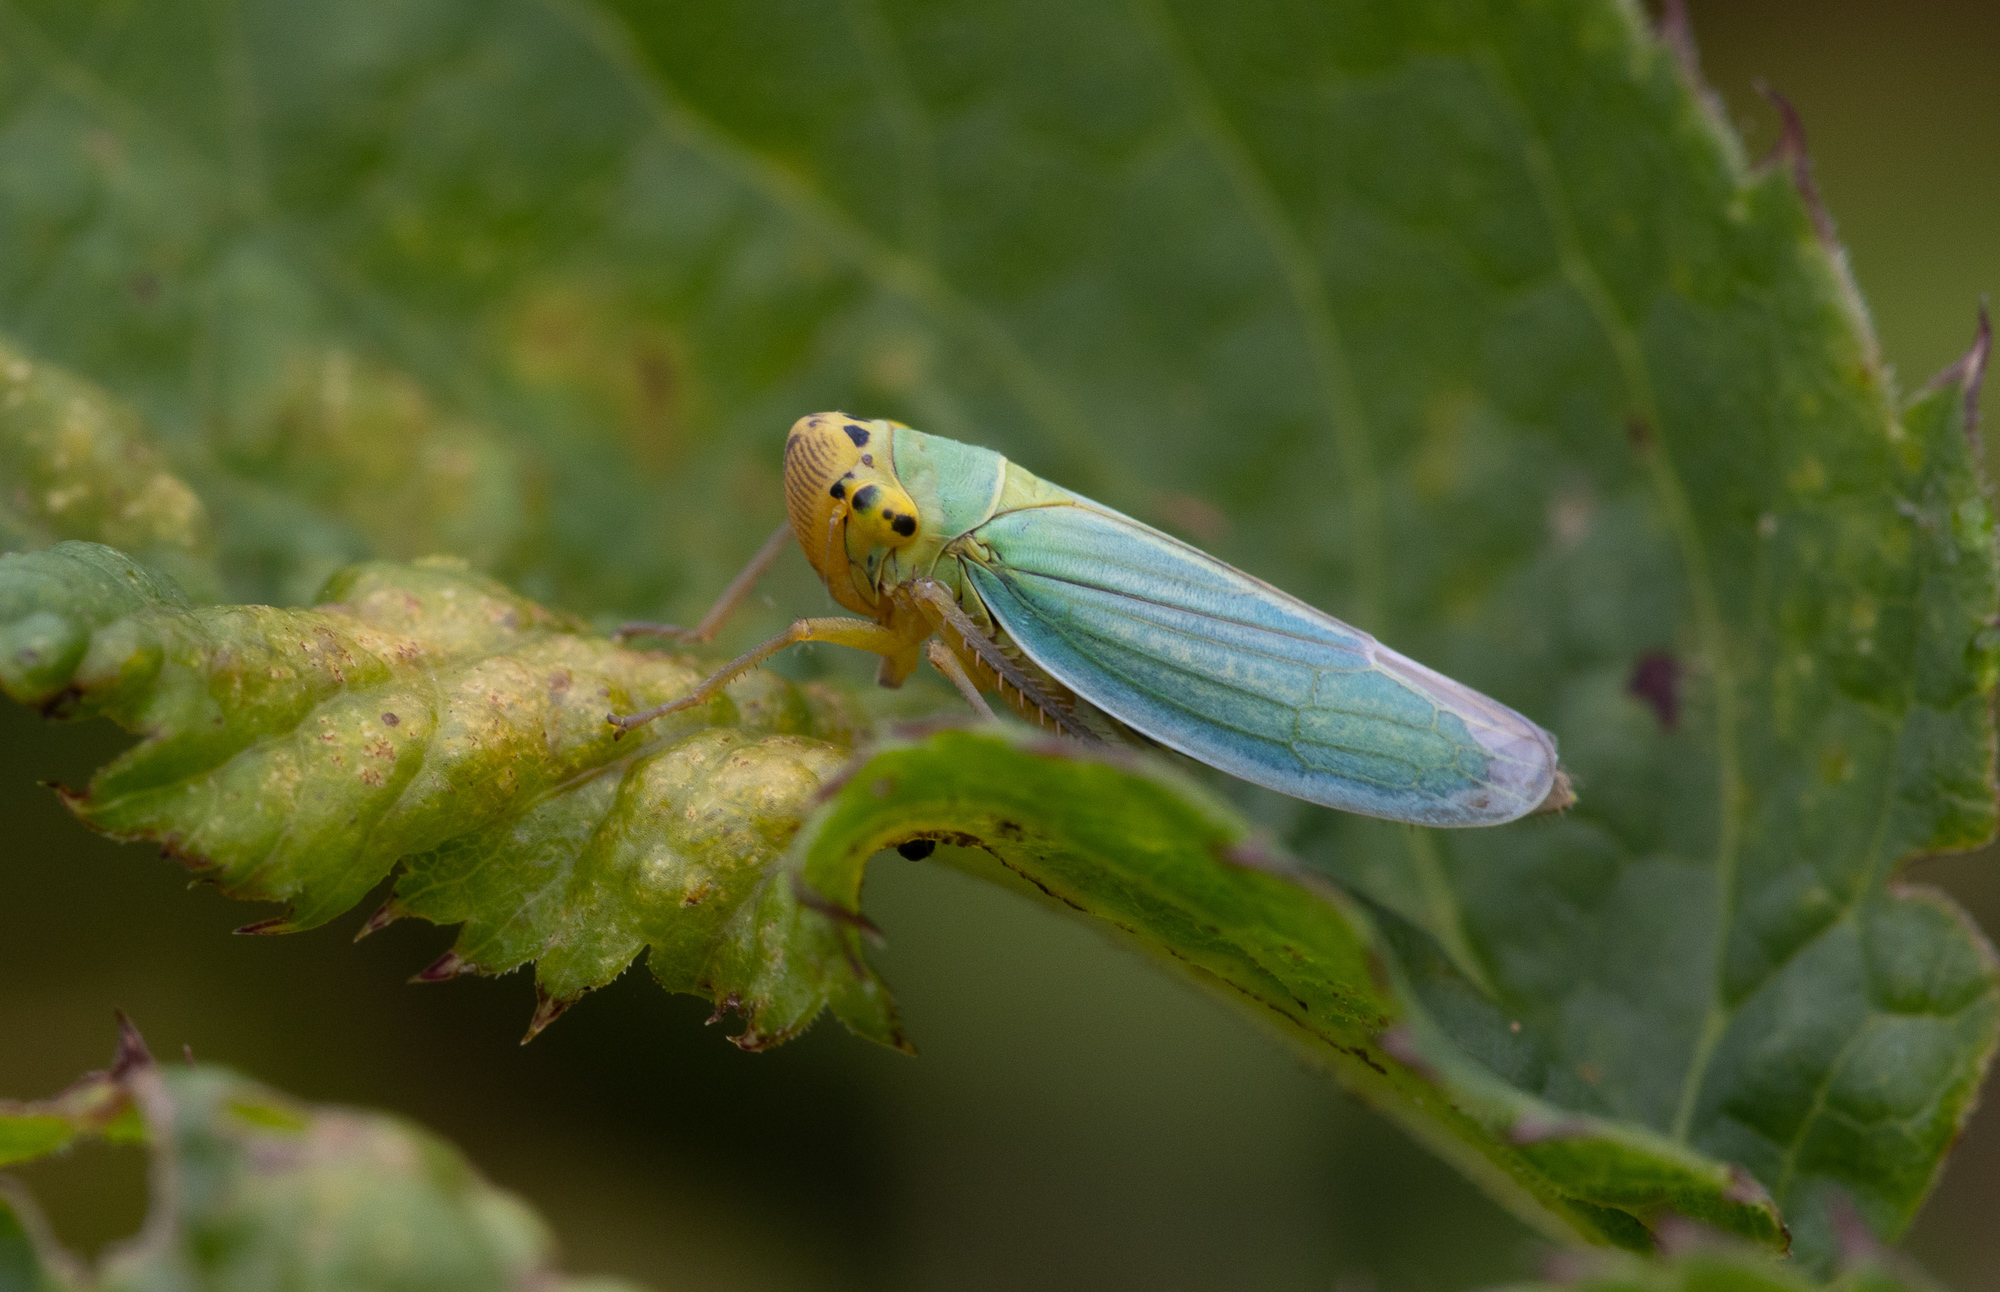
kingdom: Animalia
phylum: Arthropoda
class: Insecta
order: Hemiptera
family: Cicadellidae
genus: Cicadella
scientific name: Cicadella viridis
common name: Leafhopper
